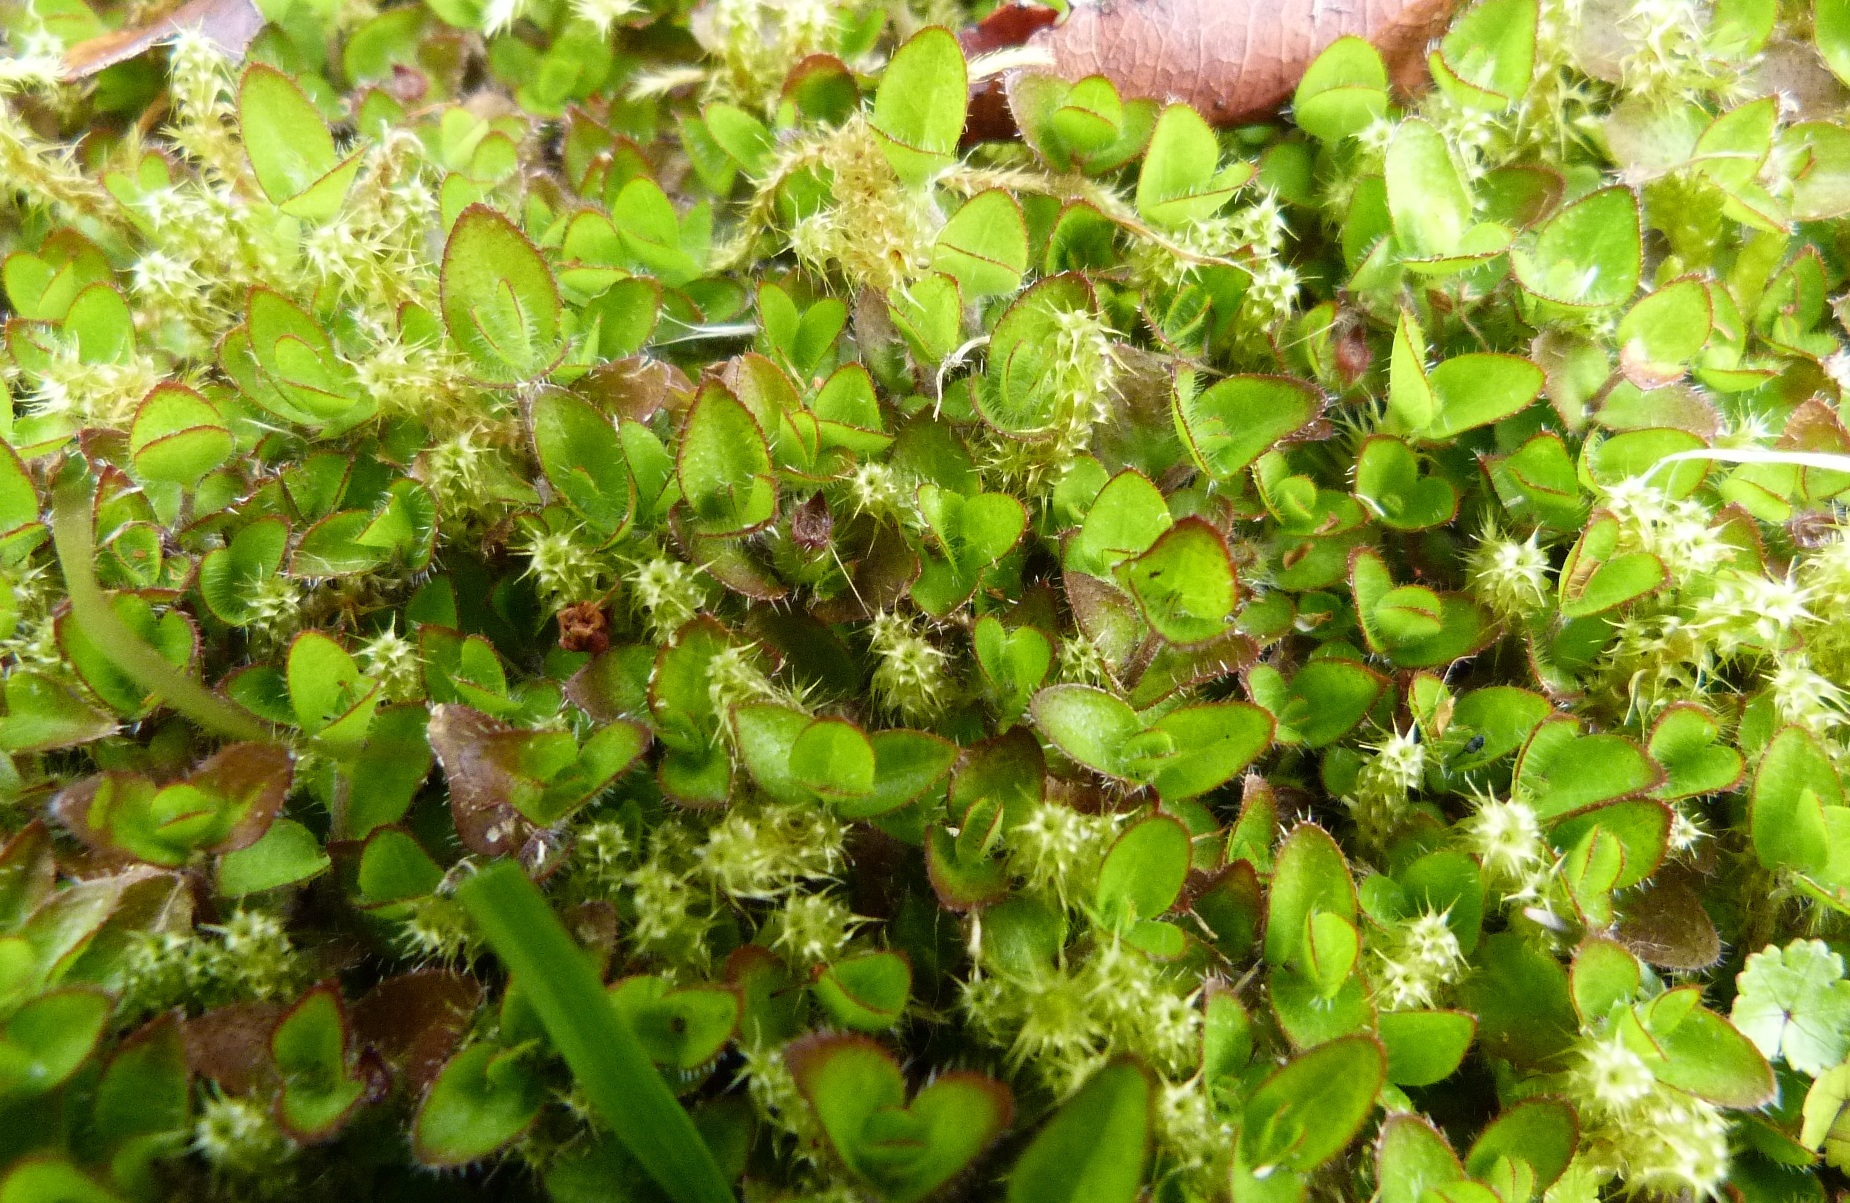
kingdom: Plantae
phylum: Tracheophyta
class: Magnoliopsida
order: Gentianales
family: Rubiaceae
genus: Leptostigma
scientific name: Leptostigma setulosum
